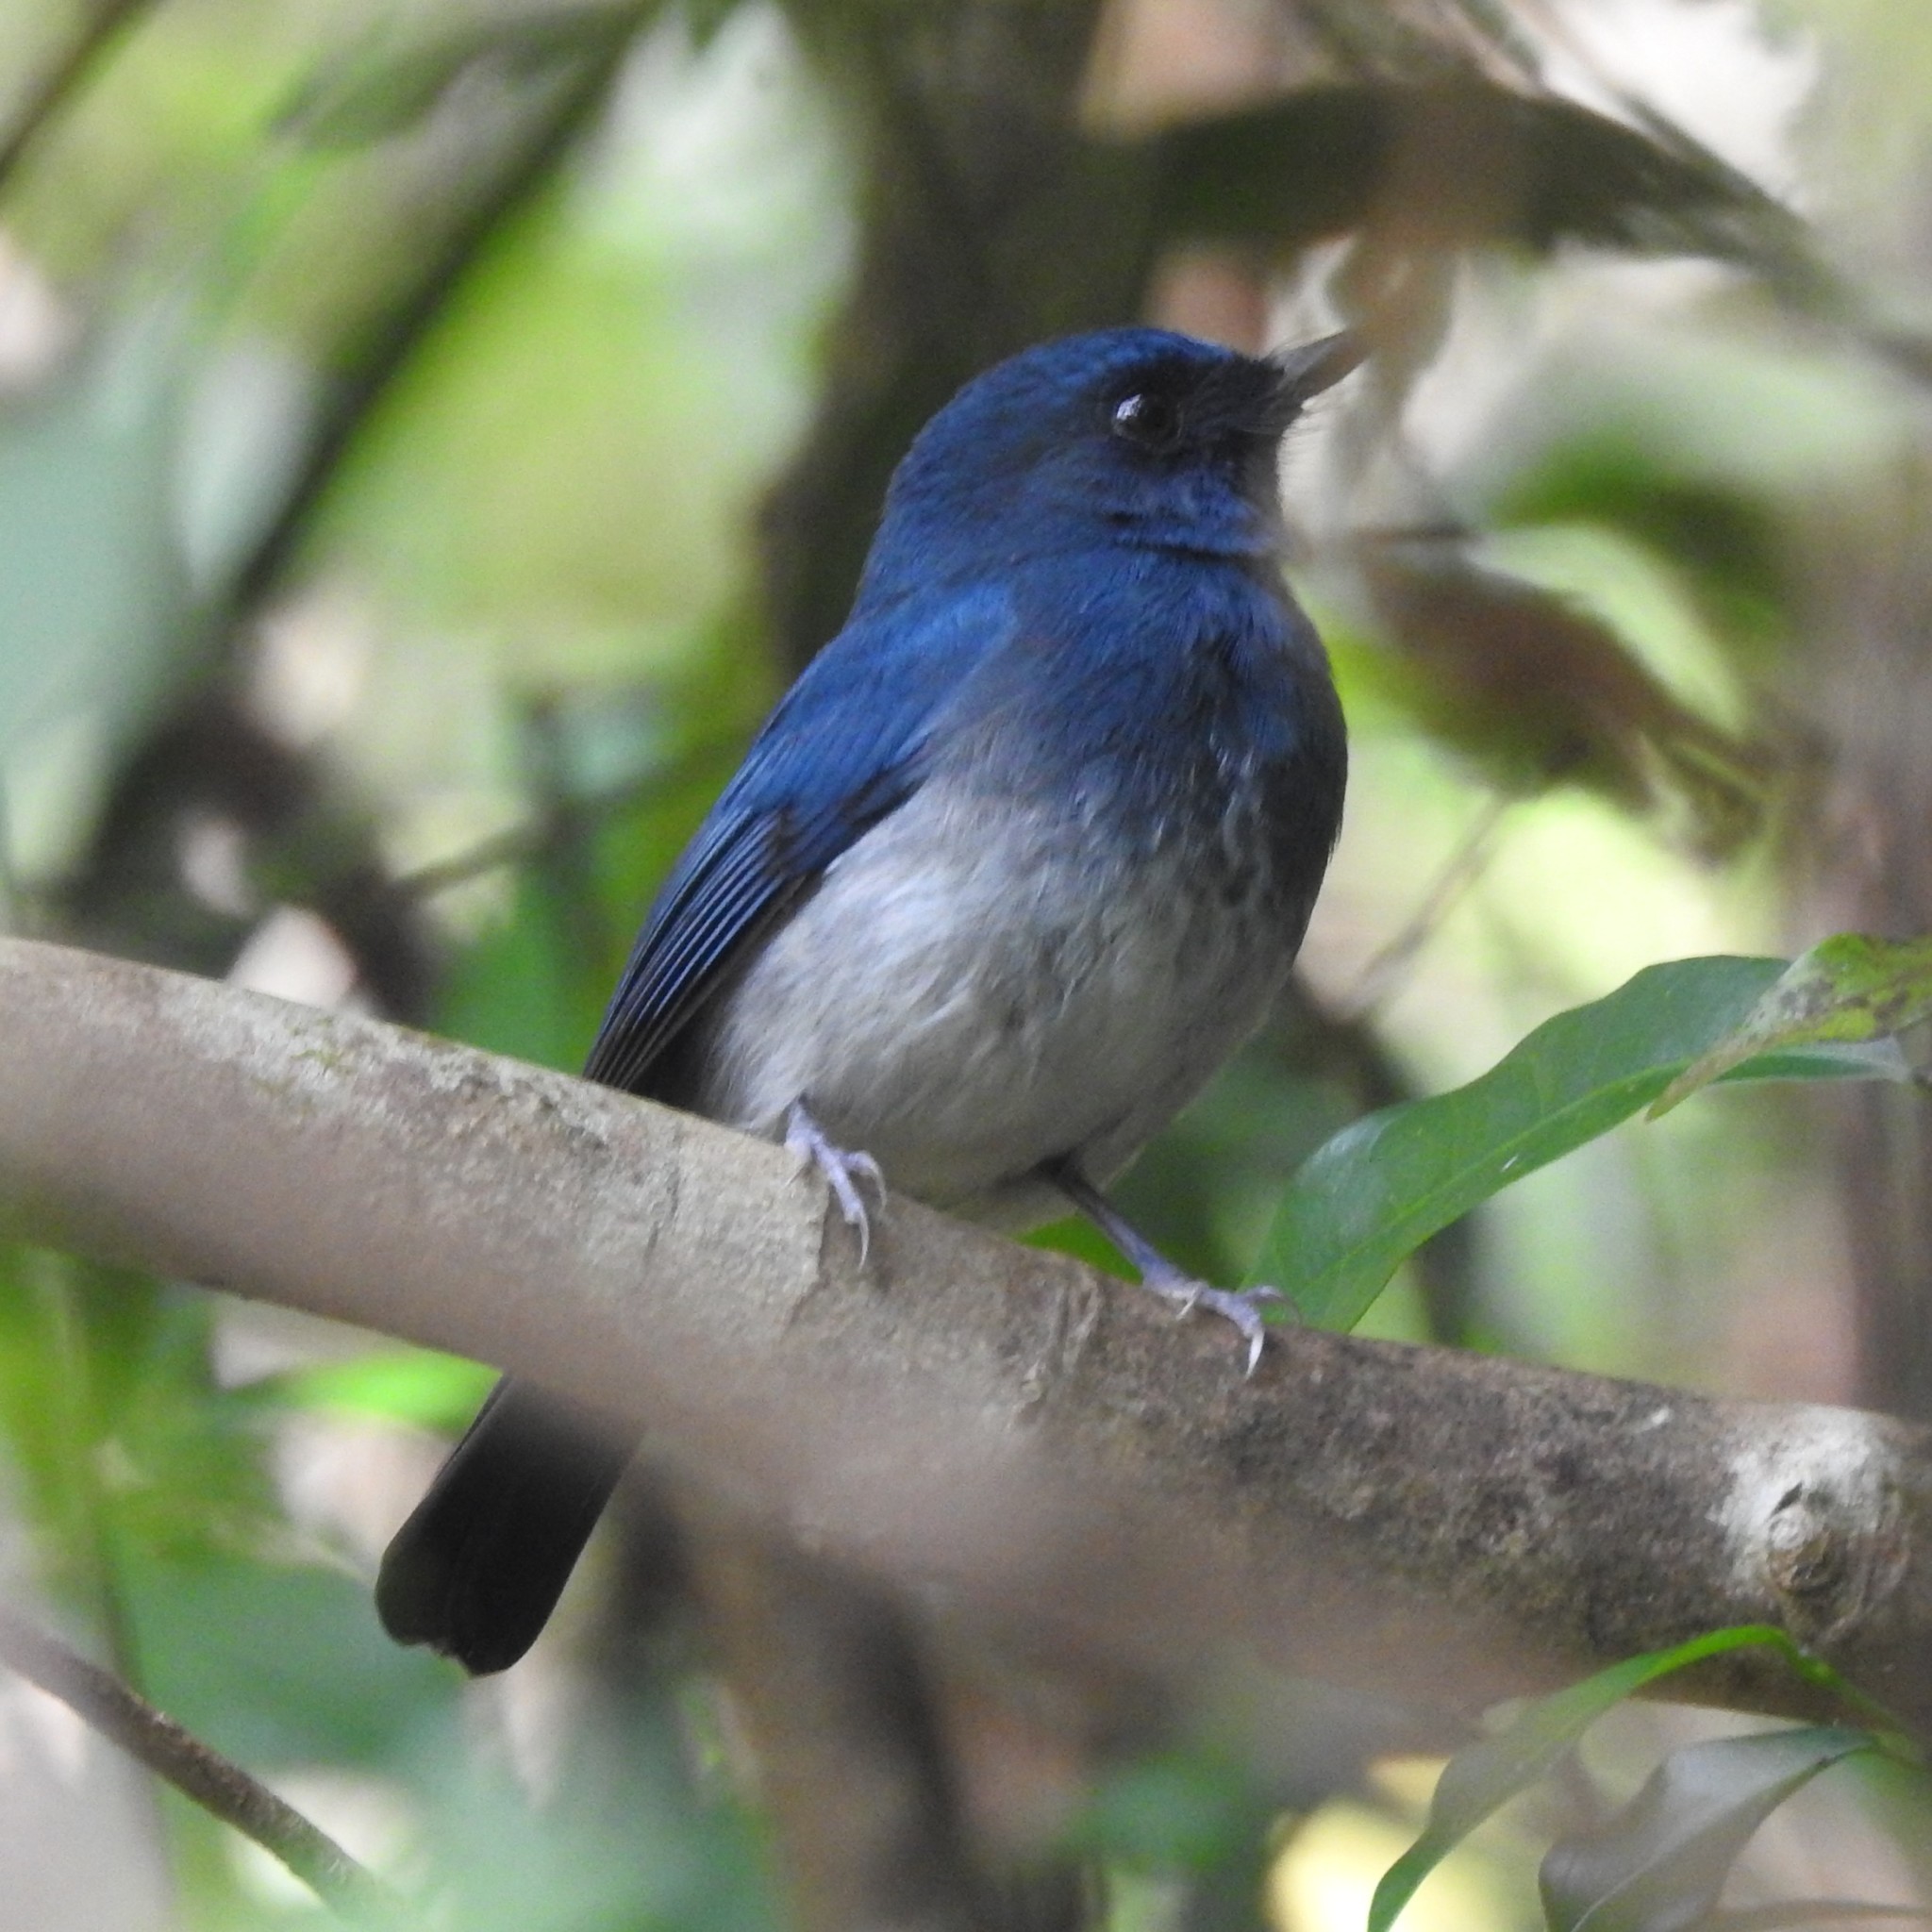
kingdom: Animalia
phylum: Chordata
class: Aves
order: Passeriformes
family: Muscicapidae
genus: Cyornis
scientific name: Cyornis pallidipes
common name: White-bellied blue flycatcher
